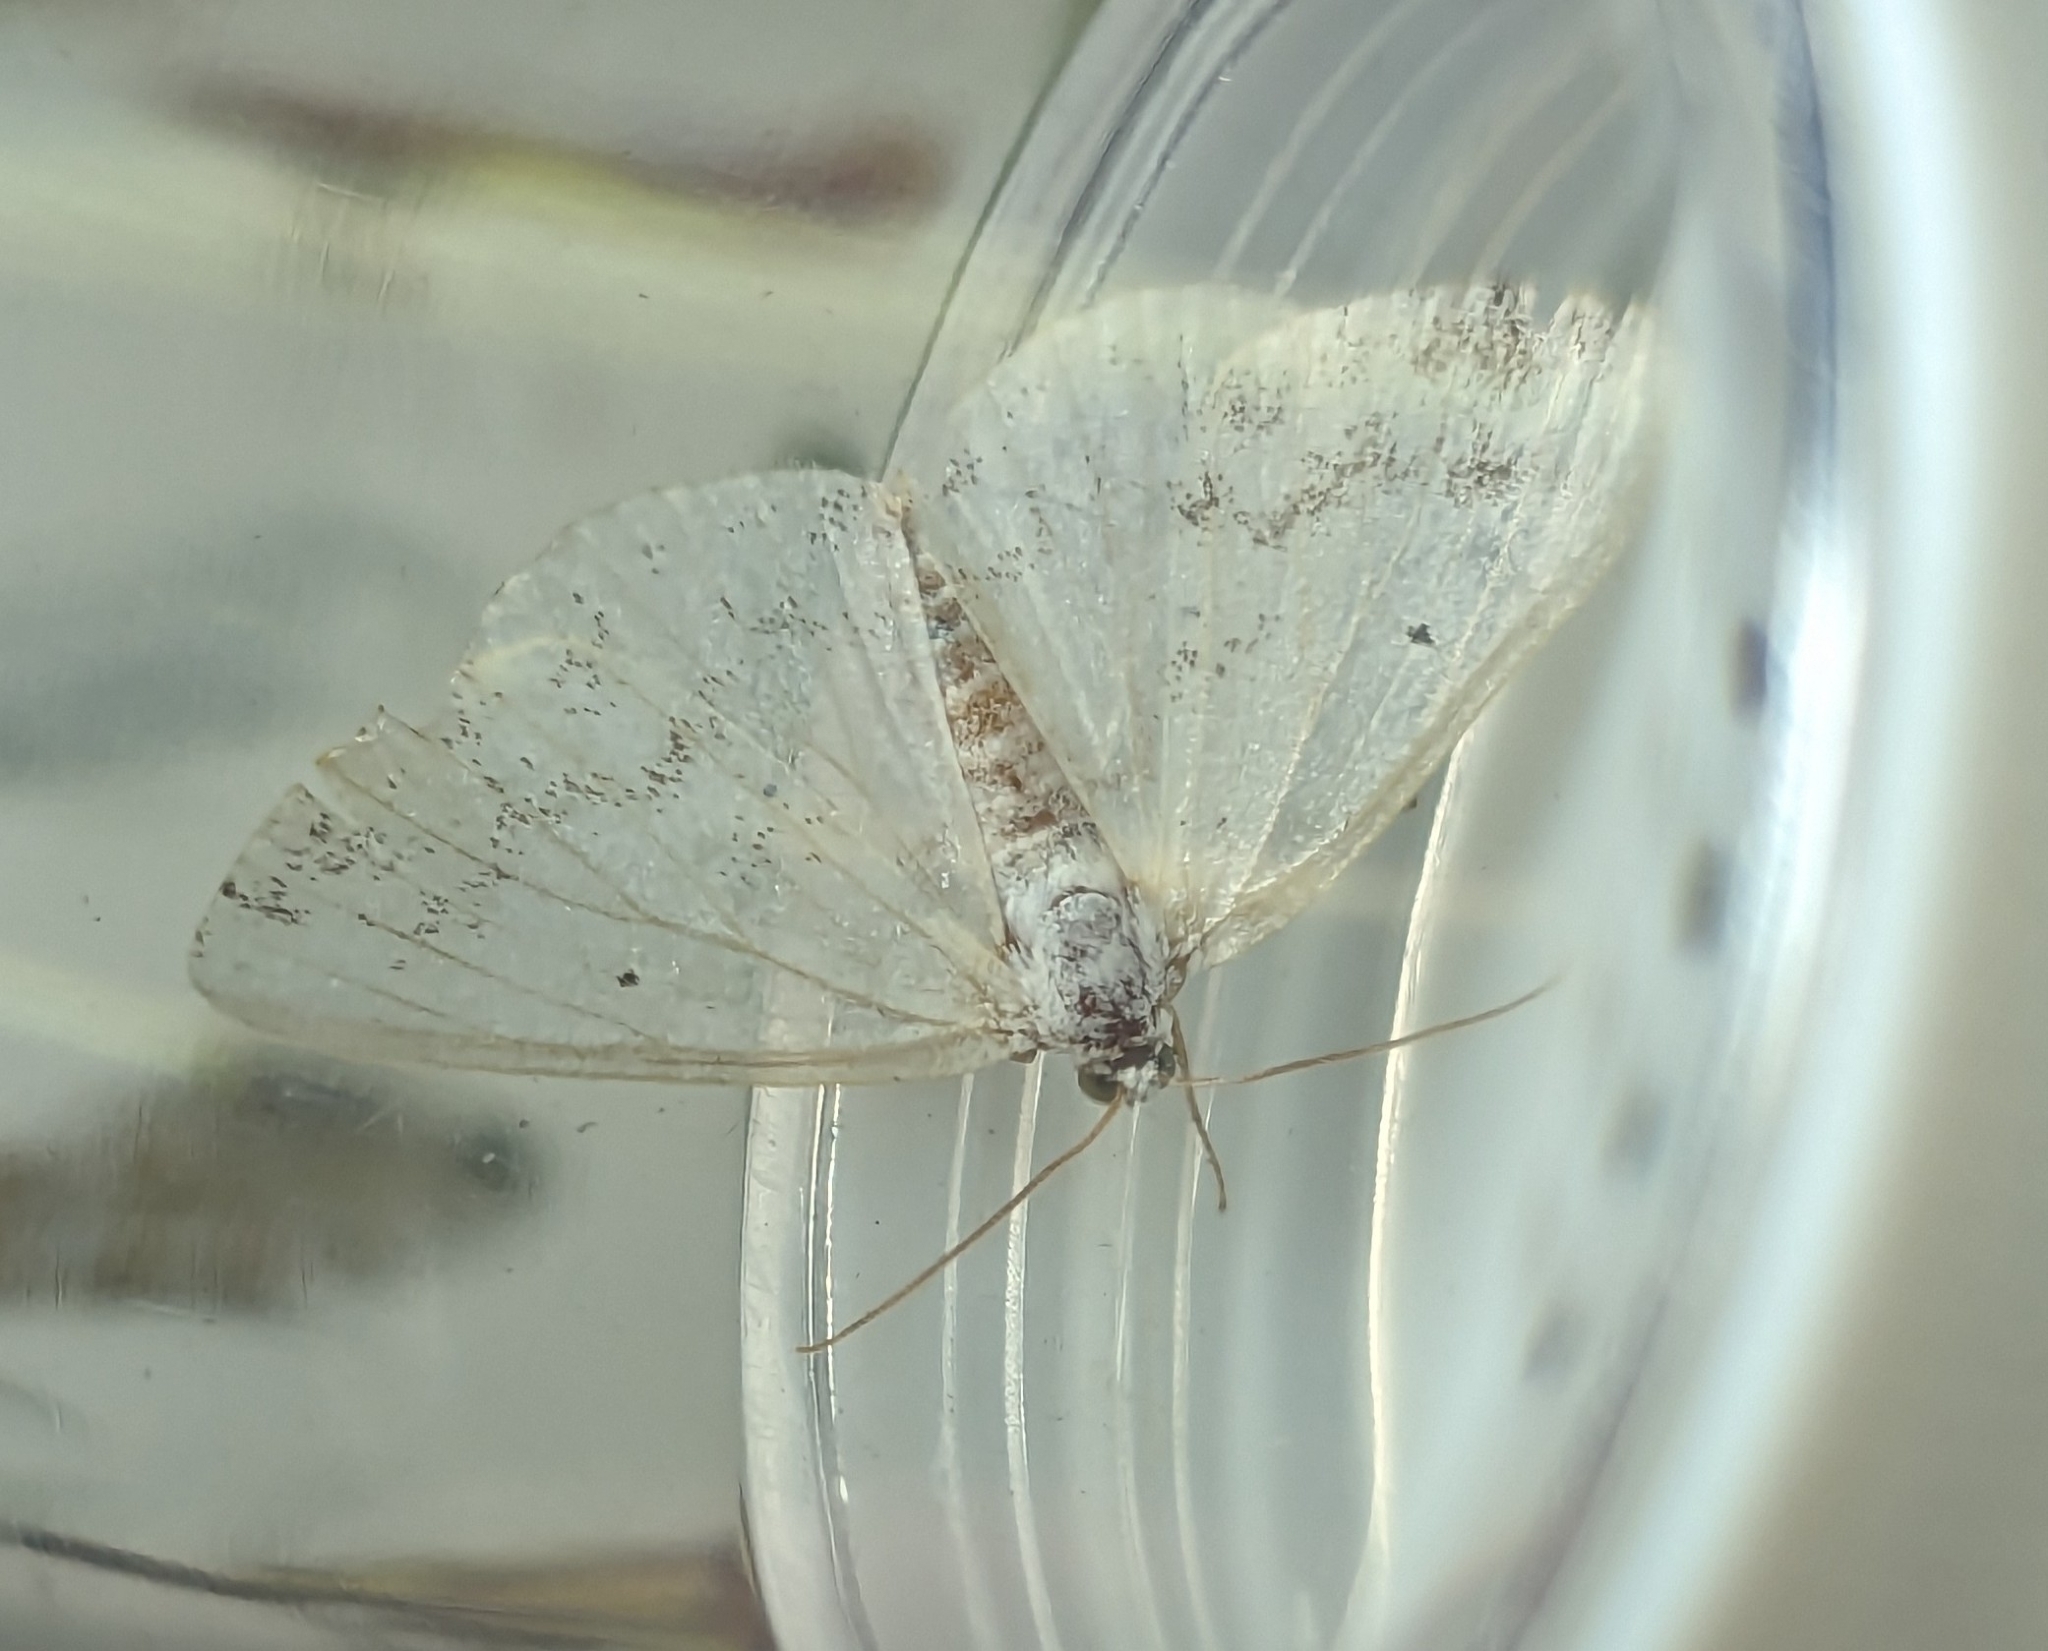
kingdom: Animalia
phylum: Arthropoda
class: Insecta
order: Lepidoptera
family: Geometridae
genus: Lomographa
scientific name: Lomographa temerata
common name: Clouded silver
